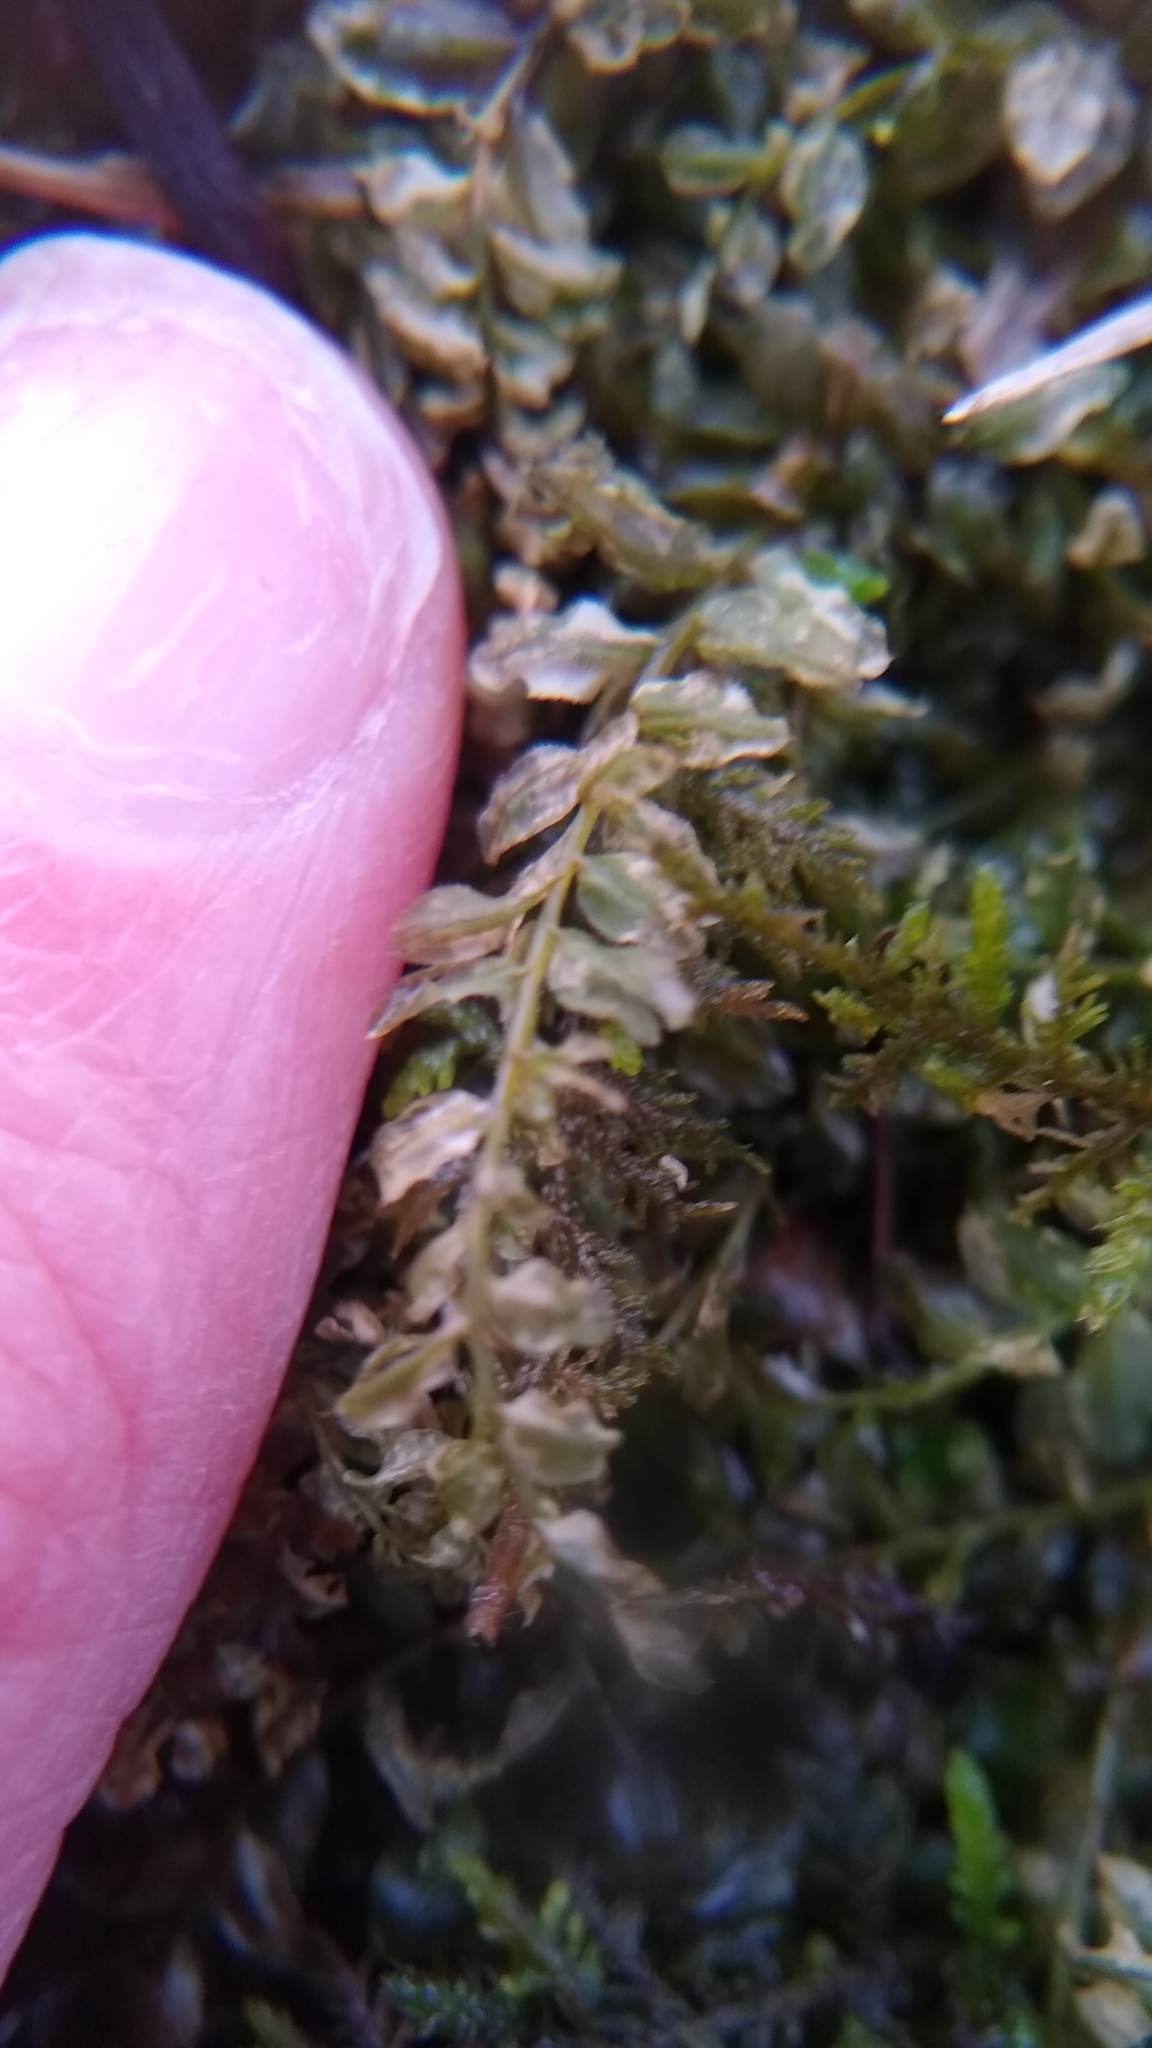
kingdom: Plantae
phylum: Bryophyta
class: Bryopsida
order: Bryales
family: Mniaceae
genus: Plagiomnium
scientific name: Plagiomnium cuspidatum
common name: Woodsy leafy moss
